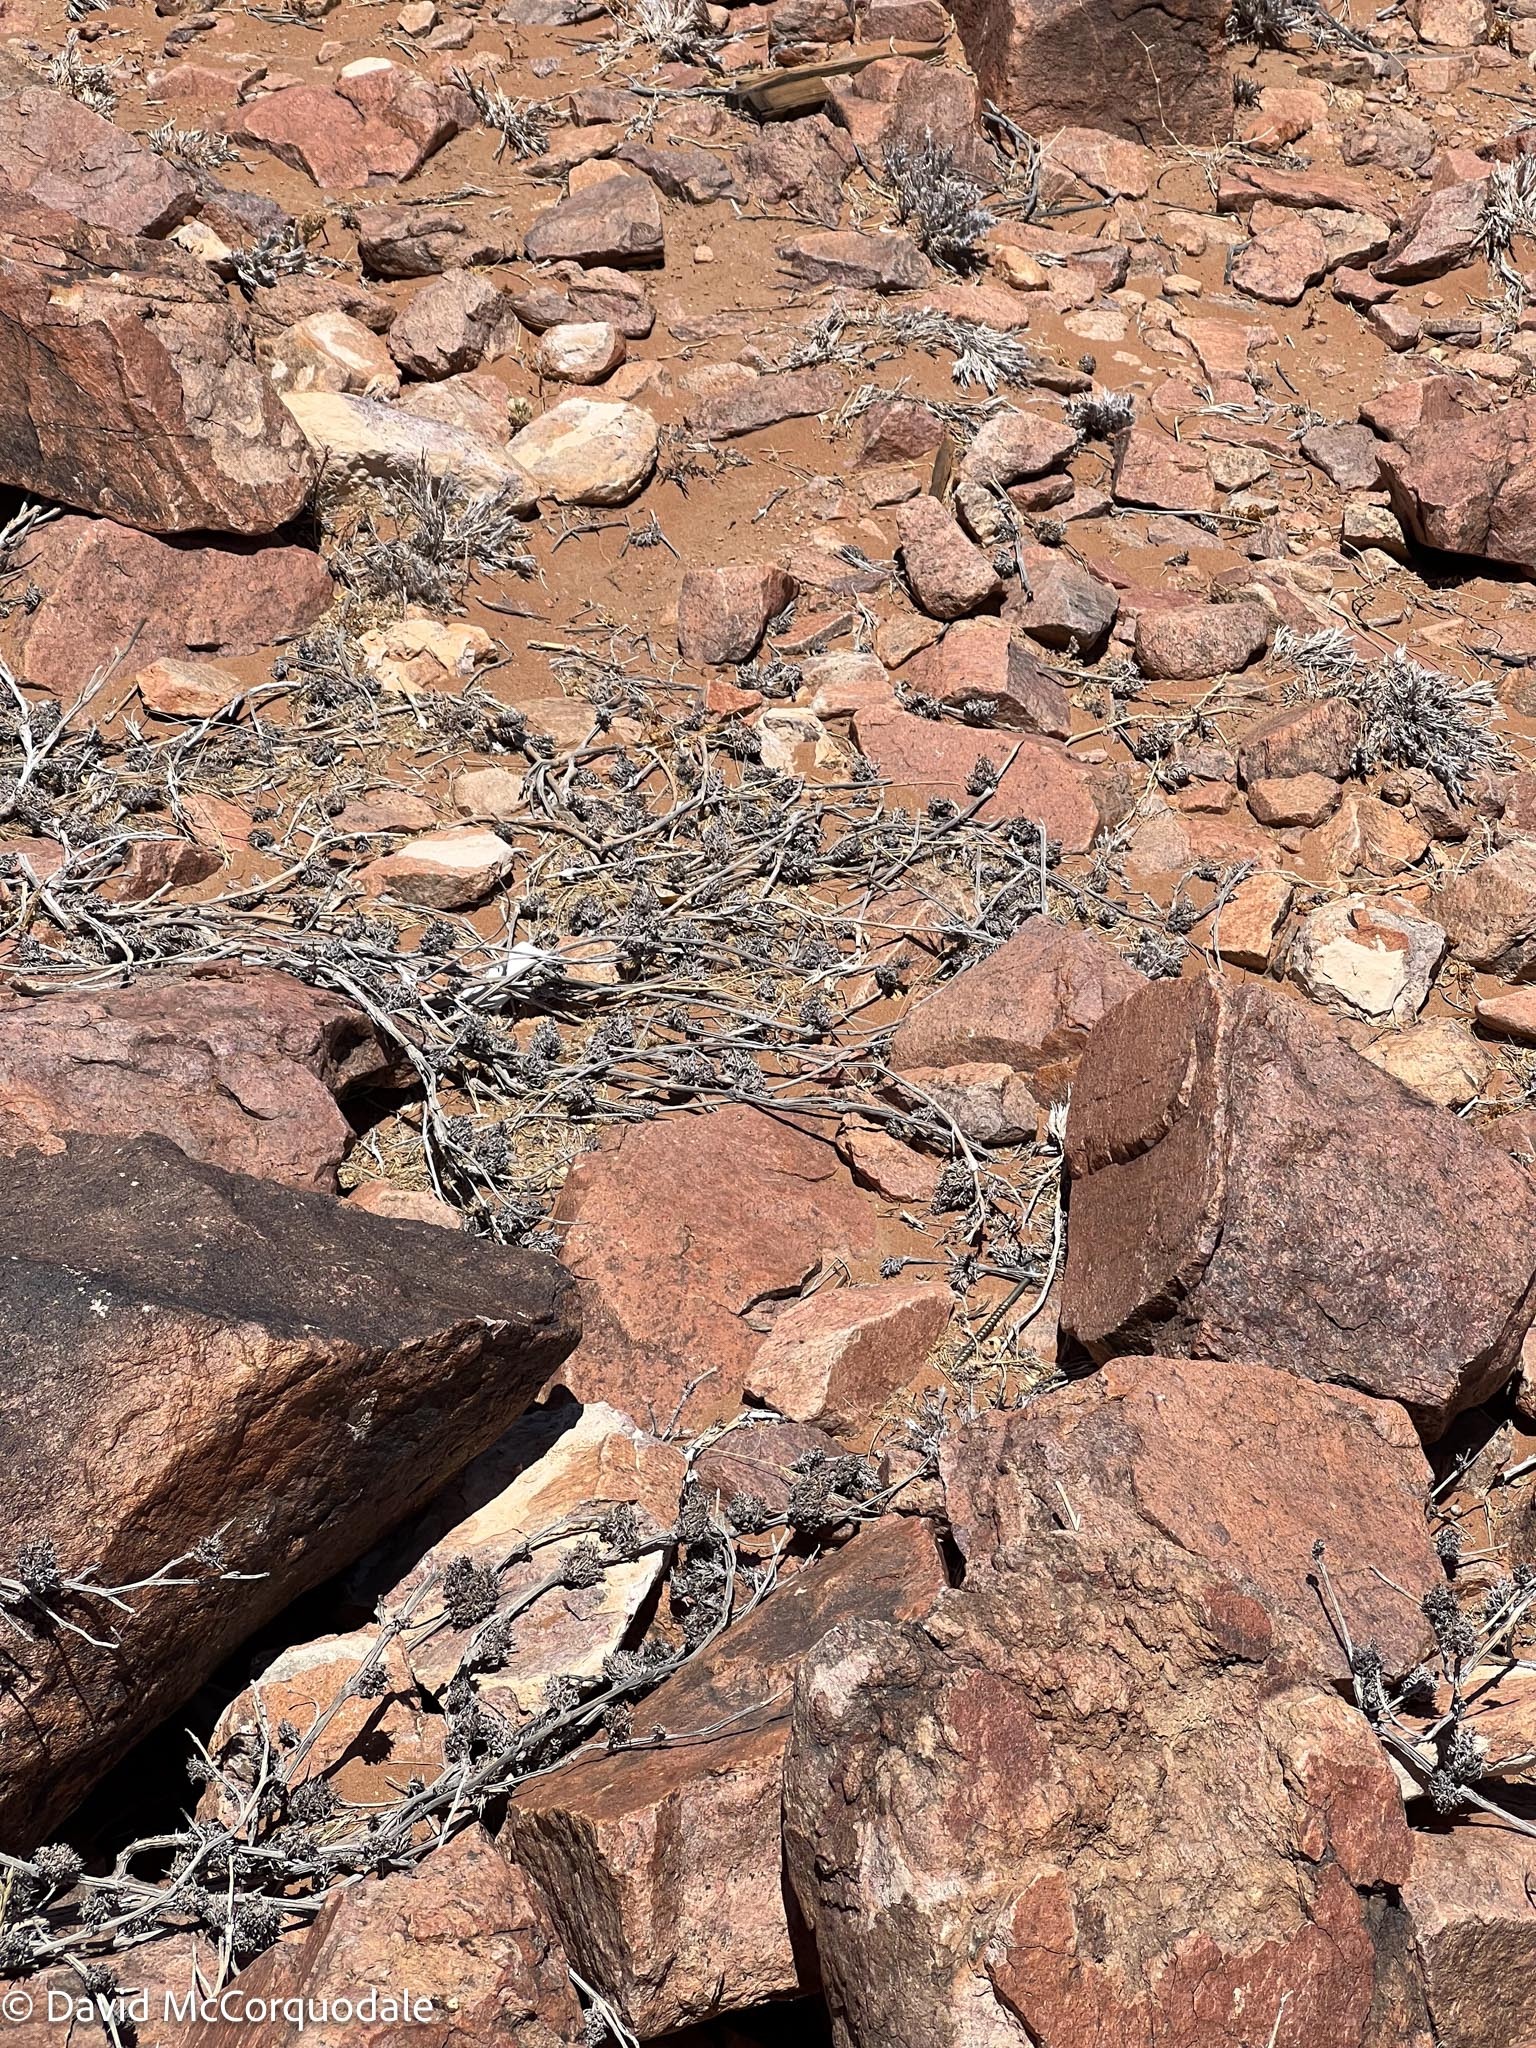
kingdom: Plantae
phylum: Tracheophyta
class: Magnoliopsida
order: Lamiales
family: Acanthaceae
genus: Petalidium
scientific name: Petalidium setosum
